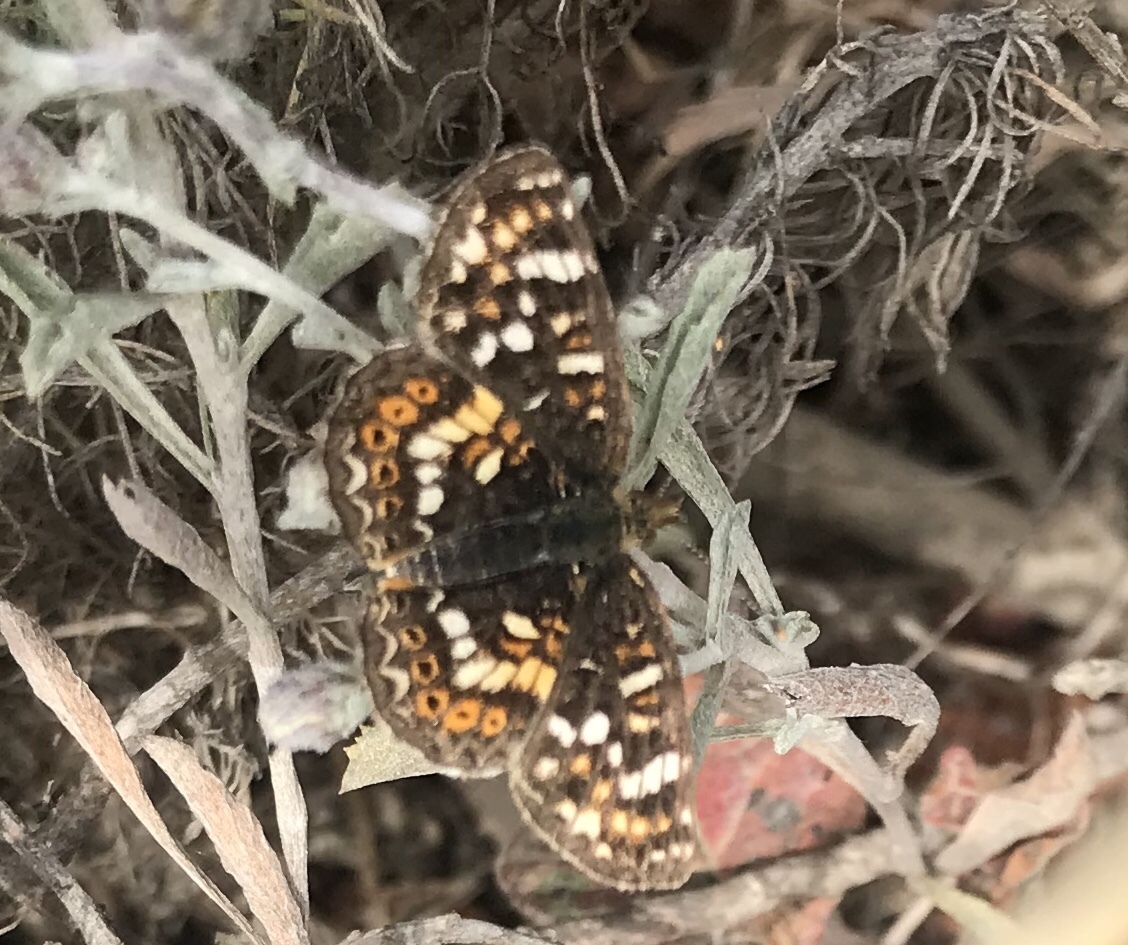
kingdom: Animalia
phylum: Arthropoda
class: Insecta
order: Lepidoptera
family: Nymphalidae
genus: Phyciodes
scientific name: Phyciodes tharos
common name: Pearl crescent
